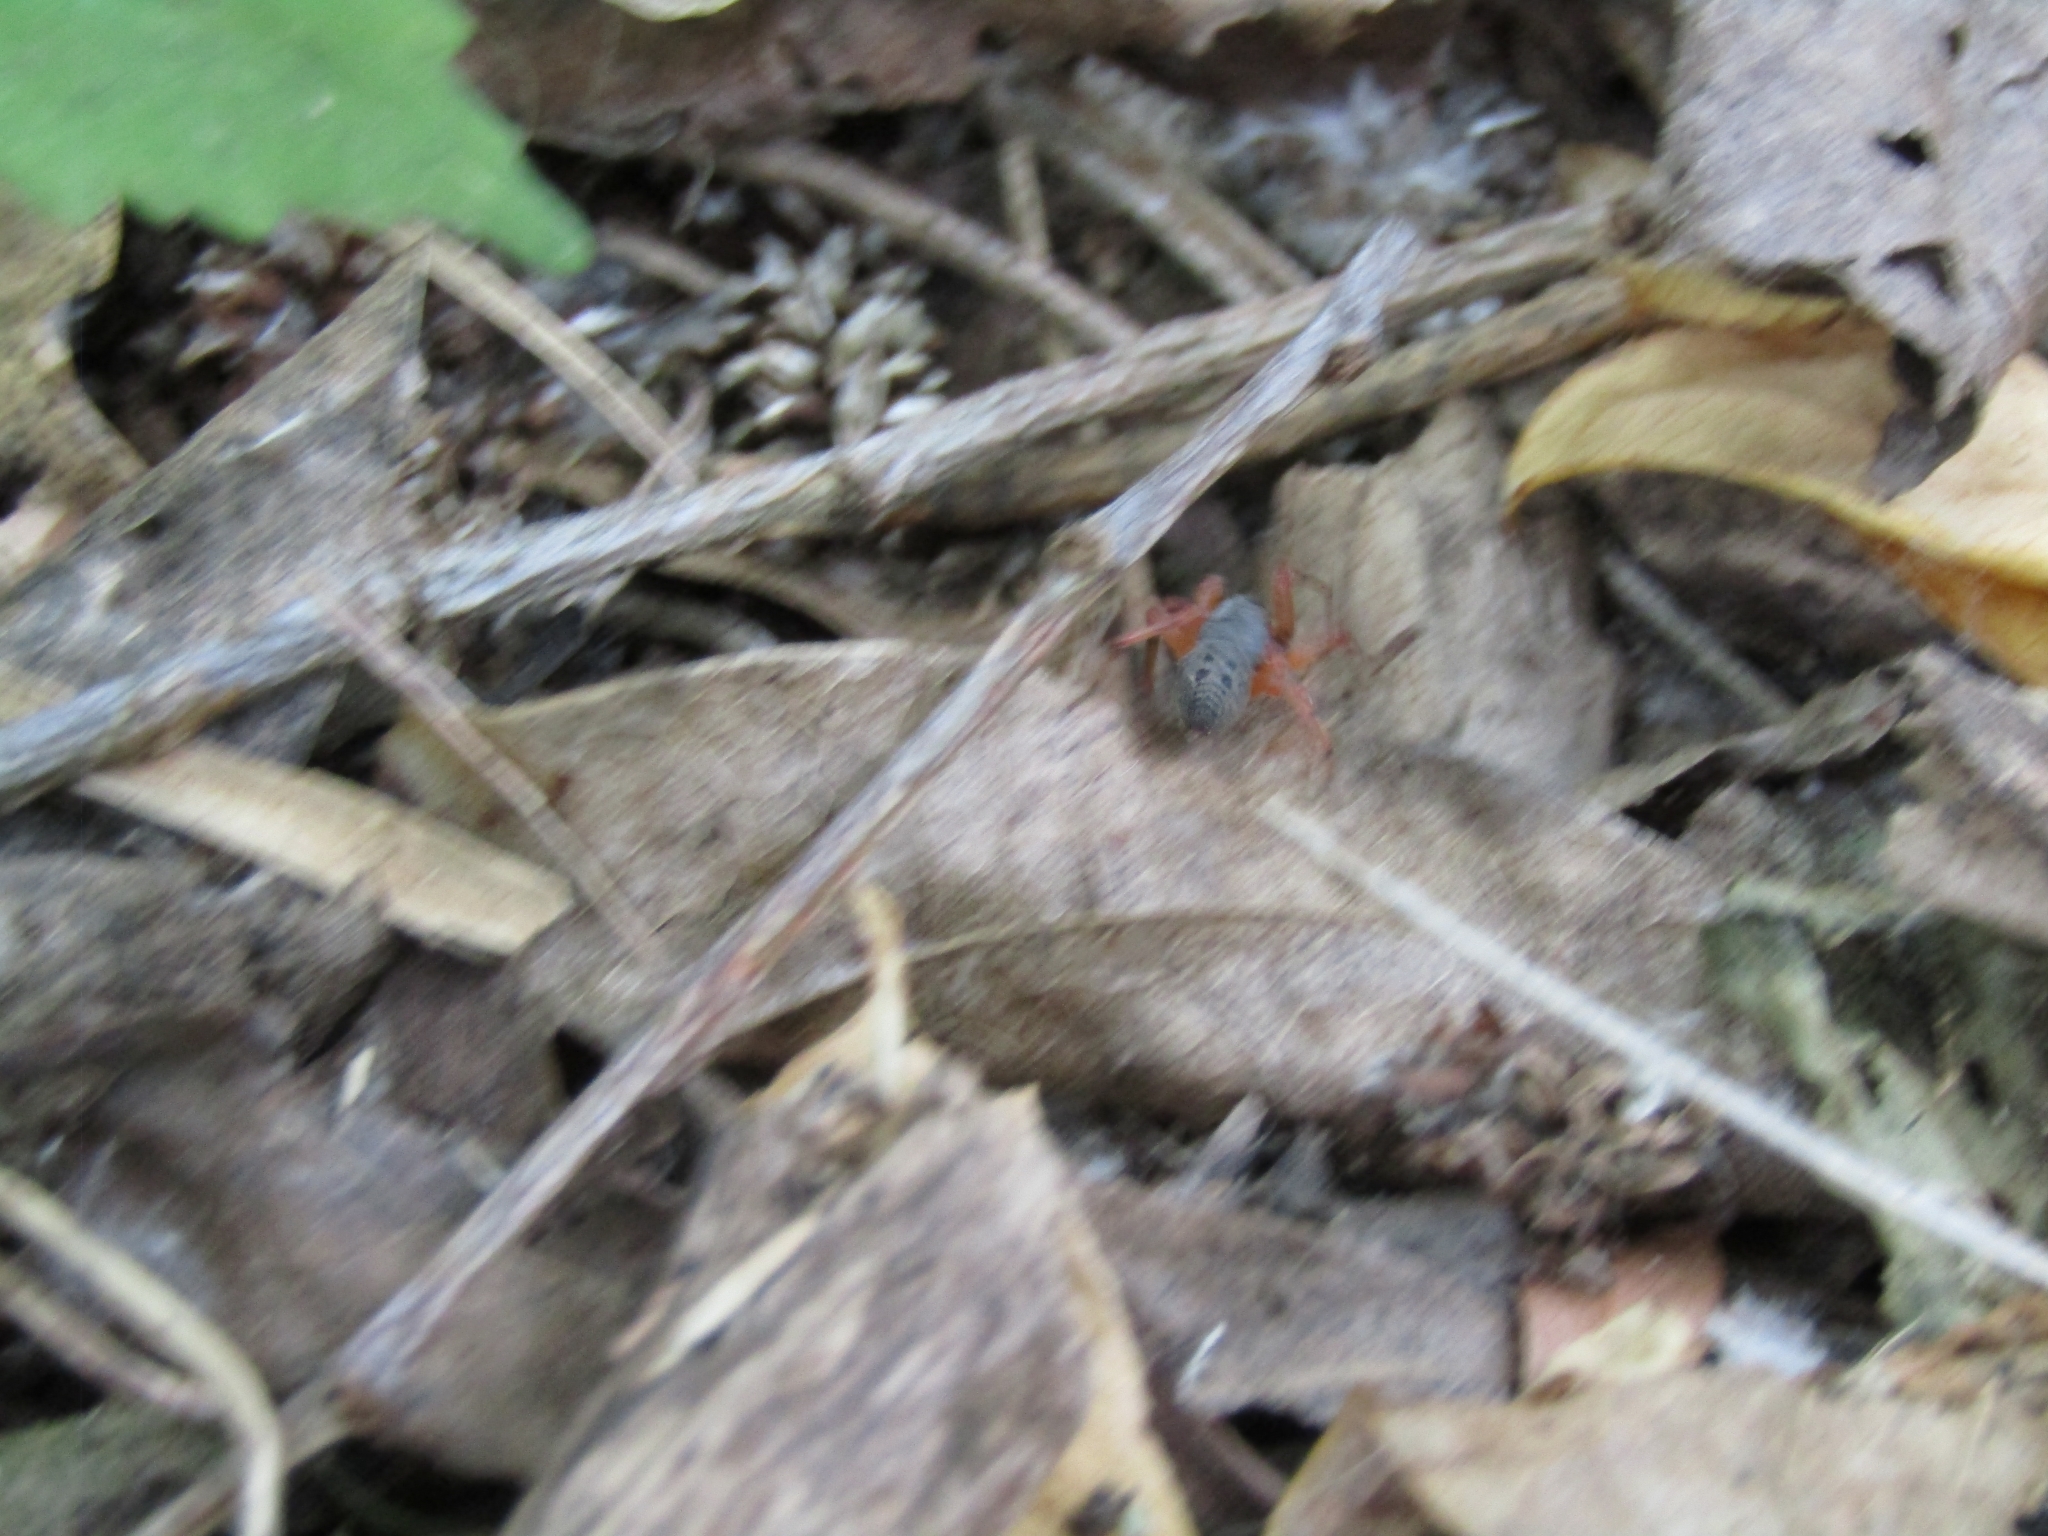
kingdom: Animalia
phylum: Arthropoda
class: Arachnida
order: Araneae
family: Trachelidae
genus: Trachelopachys
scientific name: Trachelopachys
